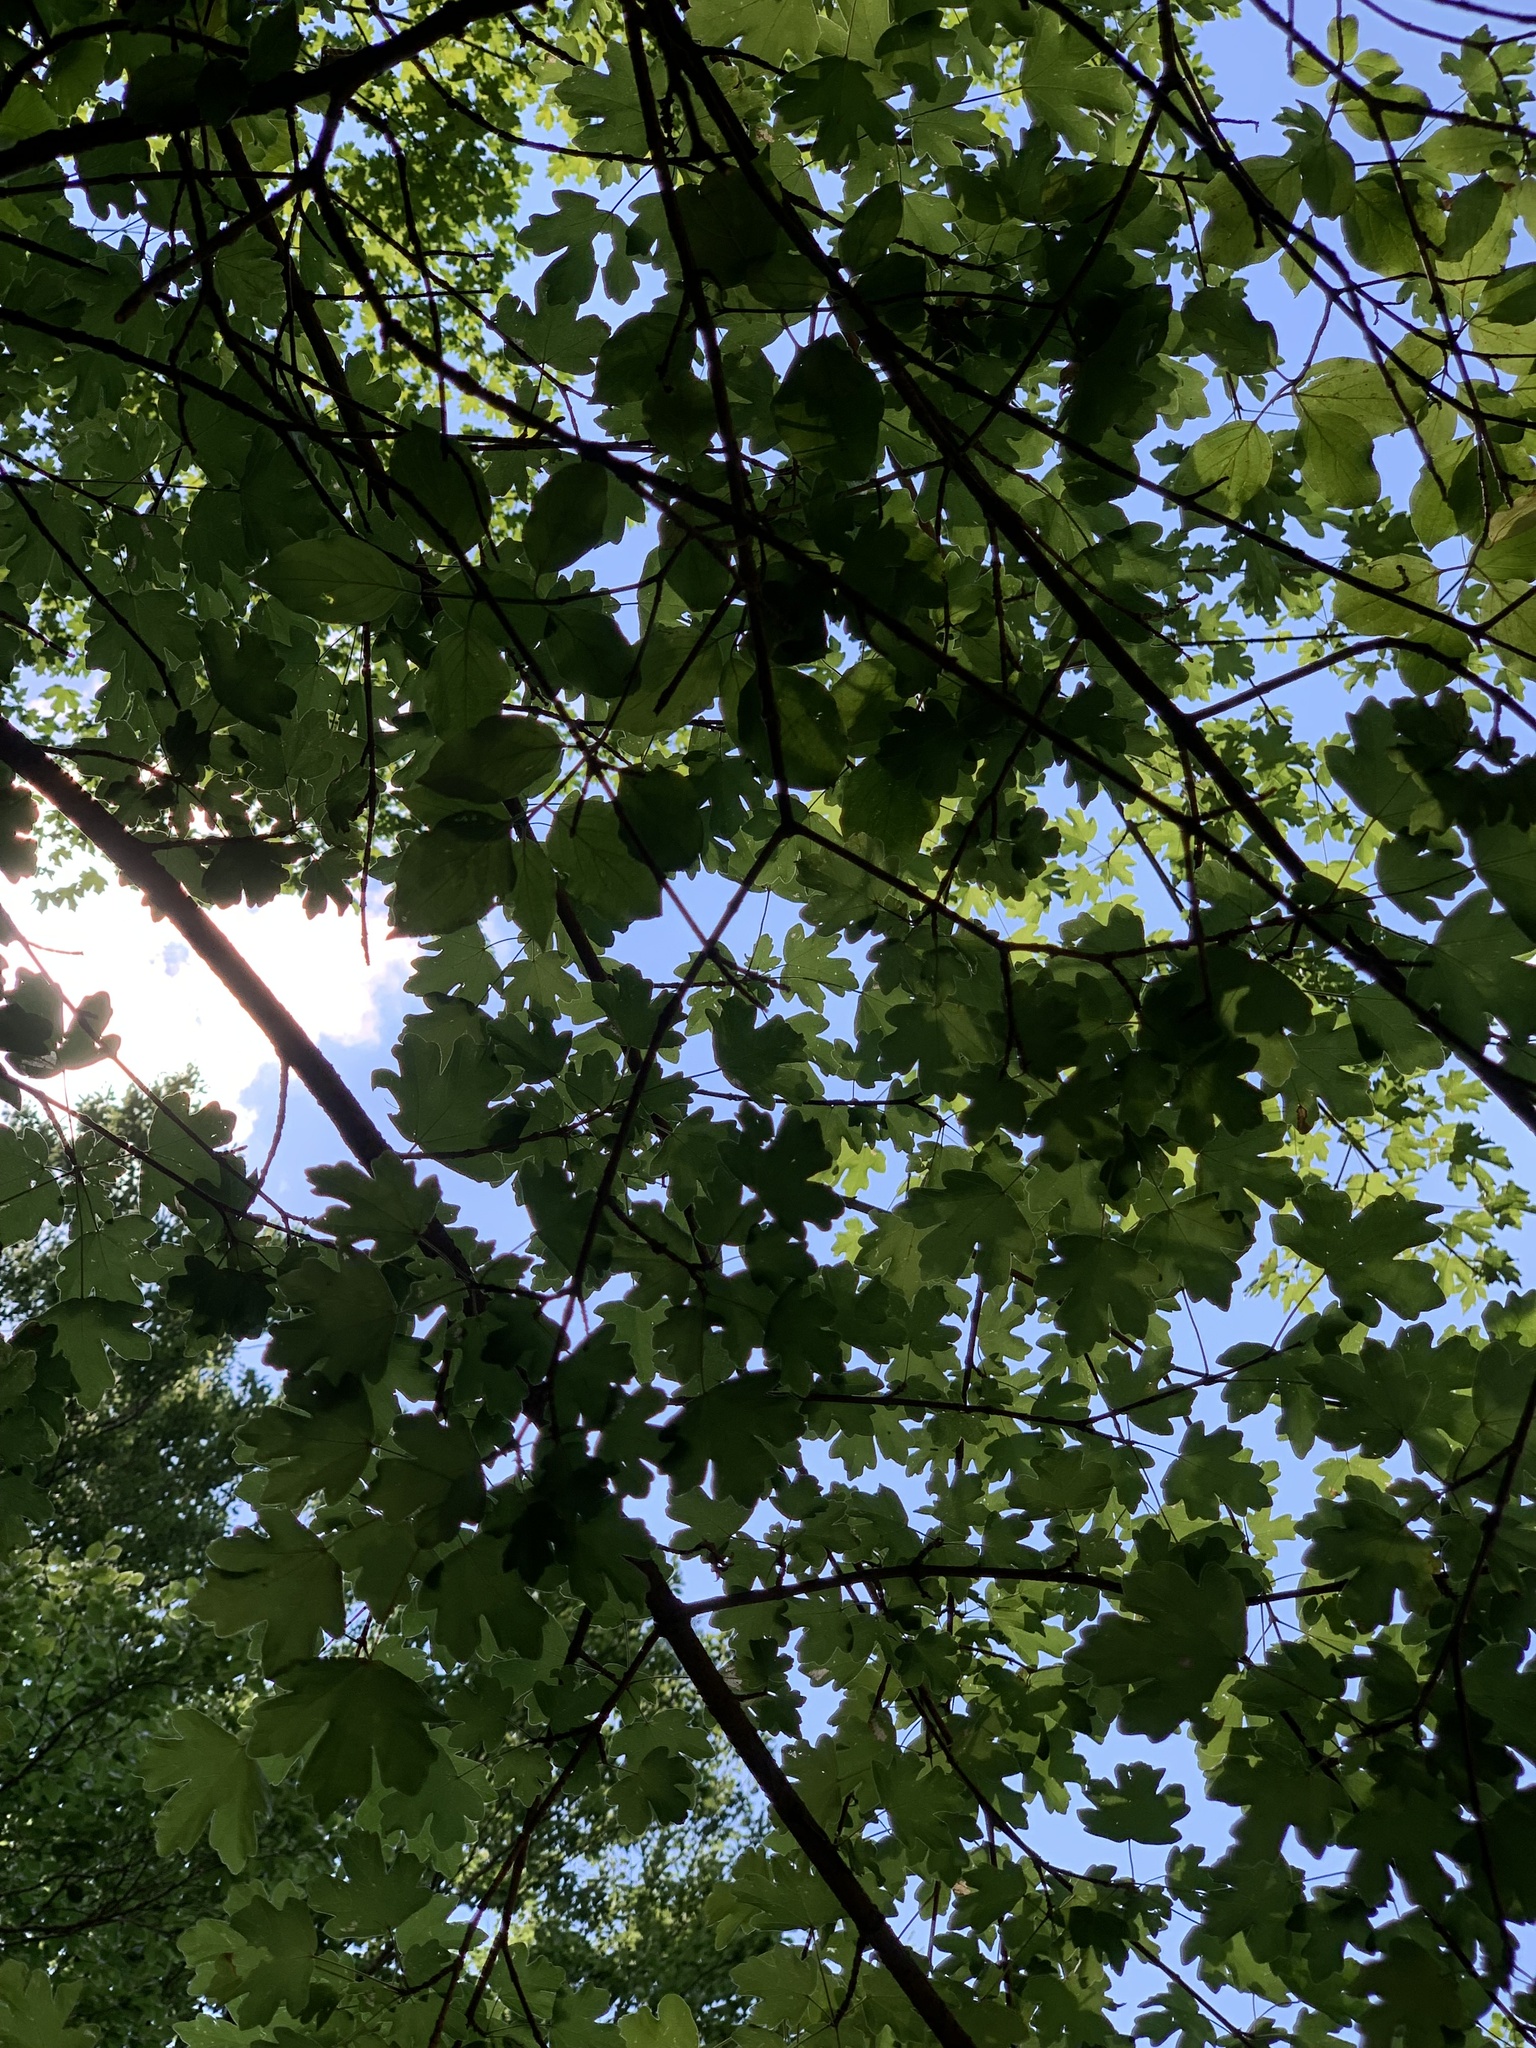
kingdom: Plantae
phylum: Tracheophyta
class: Magnoliopsida
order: Sapindales
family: Sapindaceae
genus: Acer
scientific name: Acer campestre
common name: Field maple
